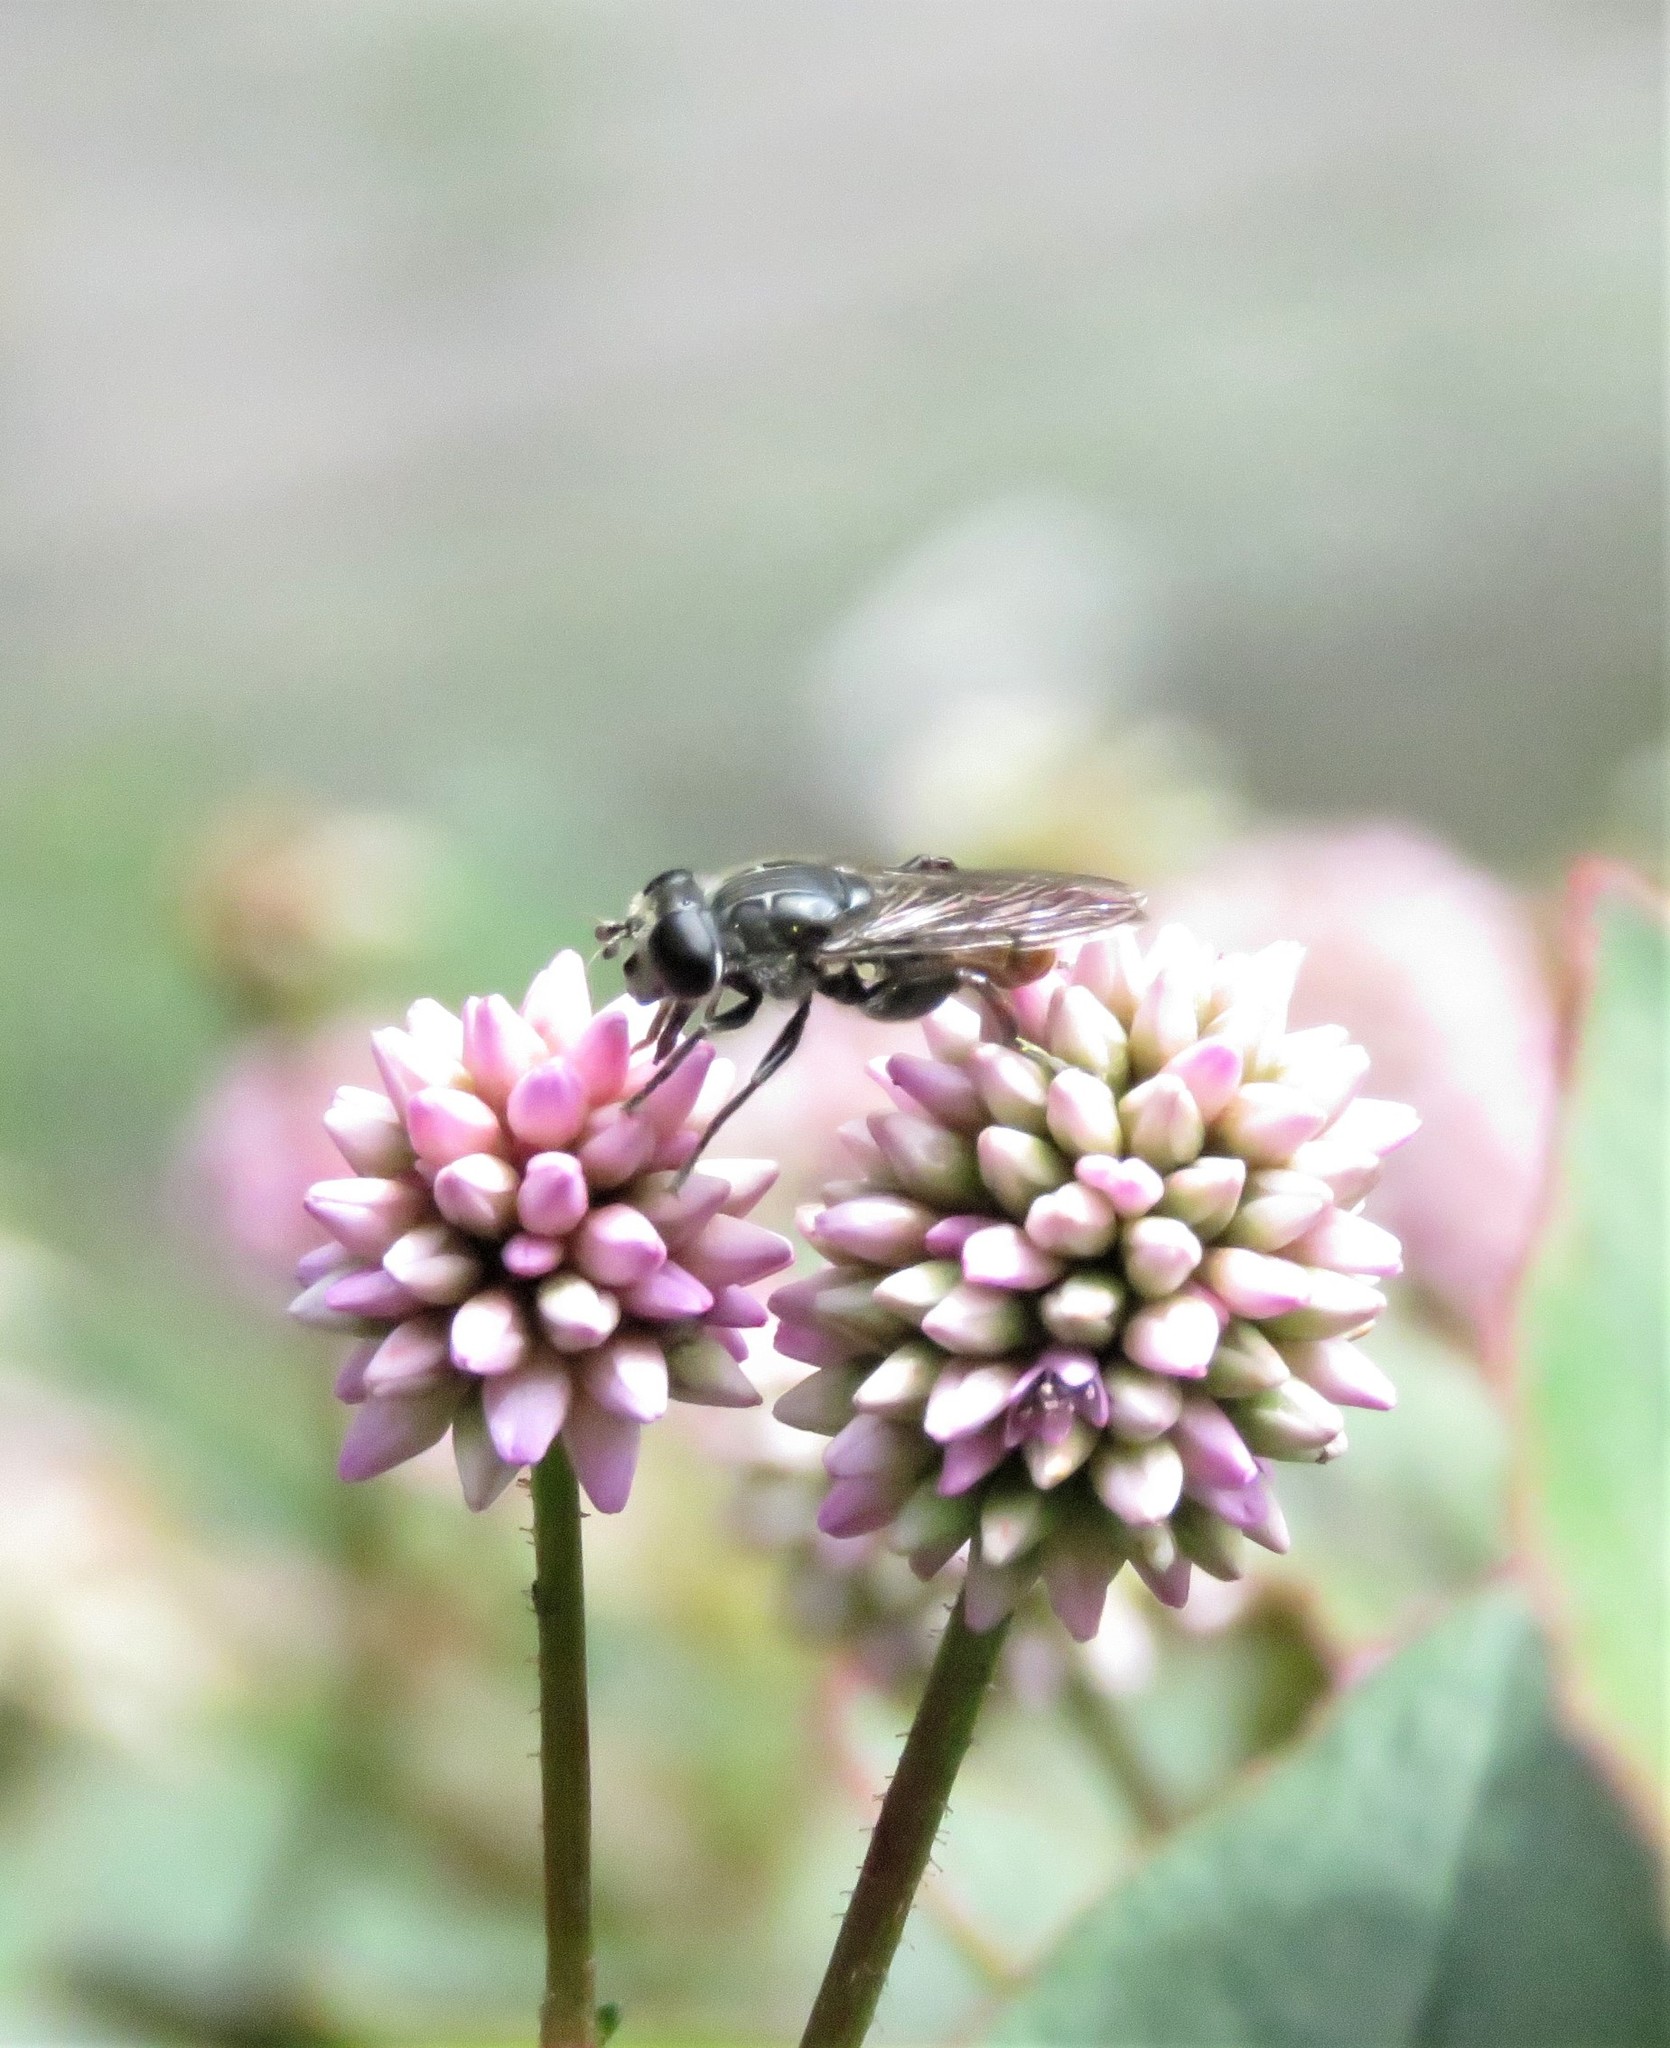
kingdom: Plantae
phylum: Tracheophyta
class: Magnoliopsida
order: Caryophyllales
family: Polygonaceae
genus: Persicaria
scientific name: Persicaria capitata
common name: Pinkhead smartweed
